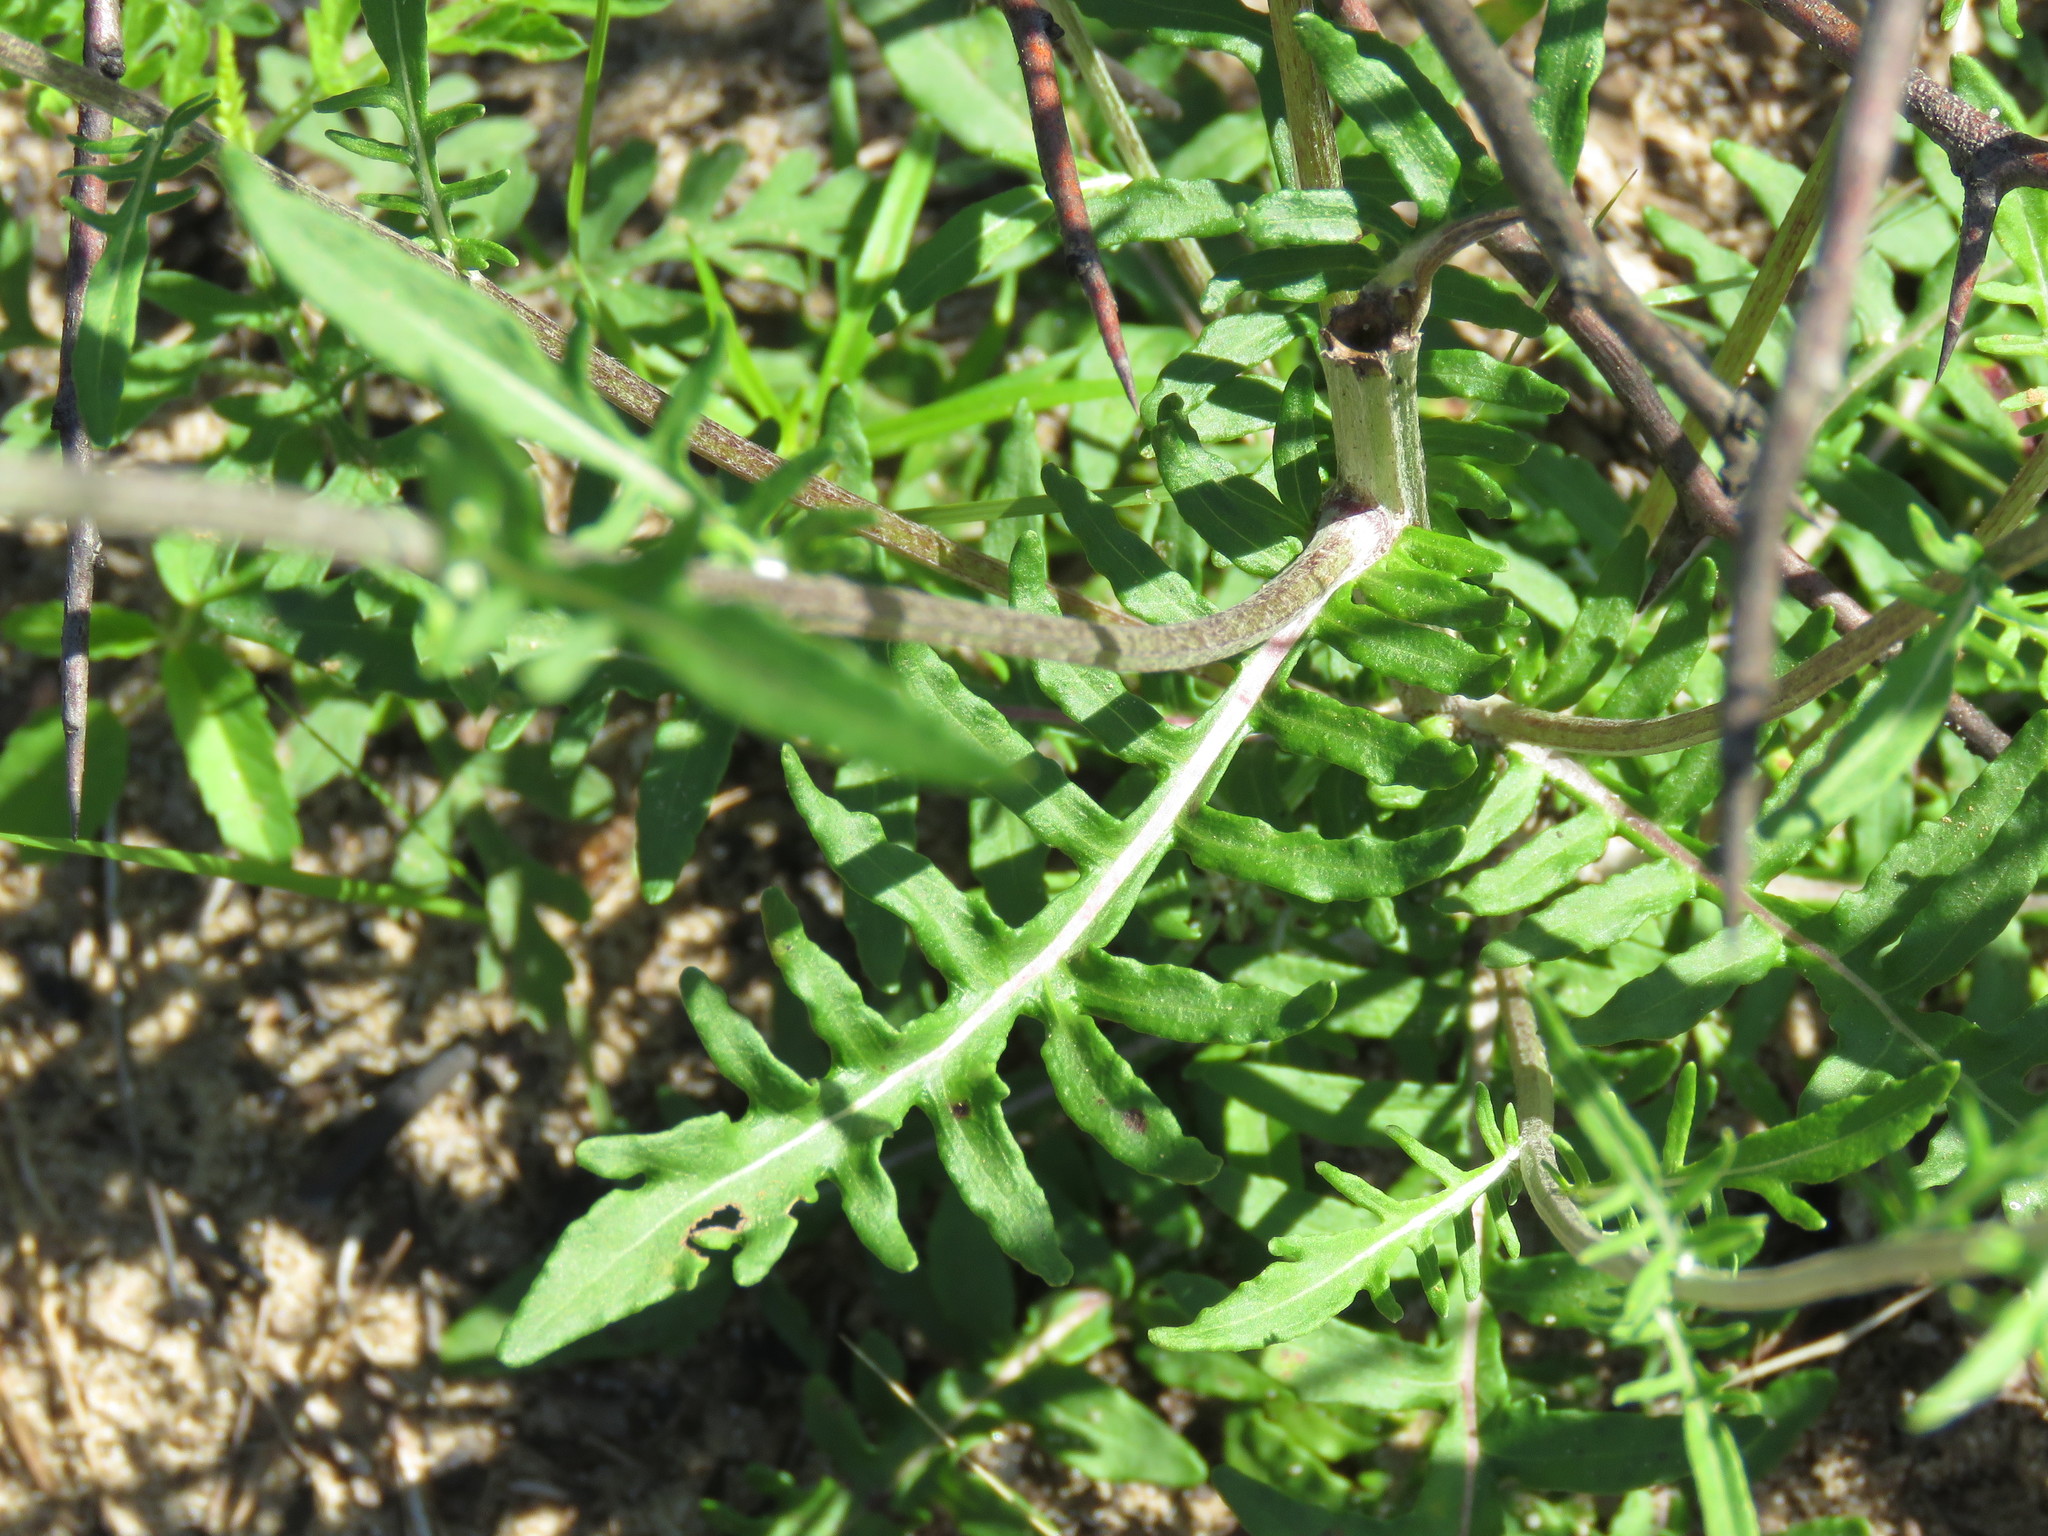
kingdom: Plantae
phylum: Tracheophyta
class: Magnoliopsida
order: Asterales
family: Asteraceae
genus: Hymenopappus
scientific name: Hymenopappus artemisiifolius
